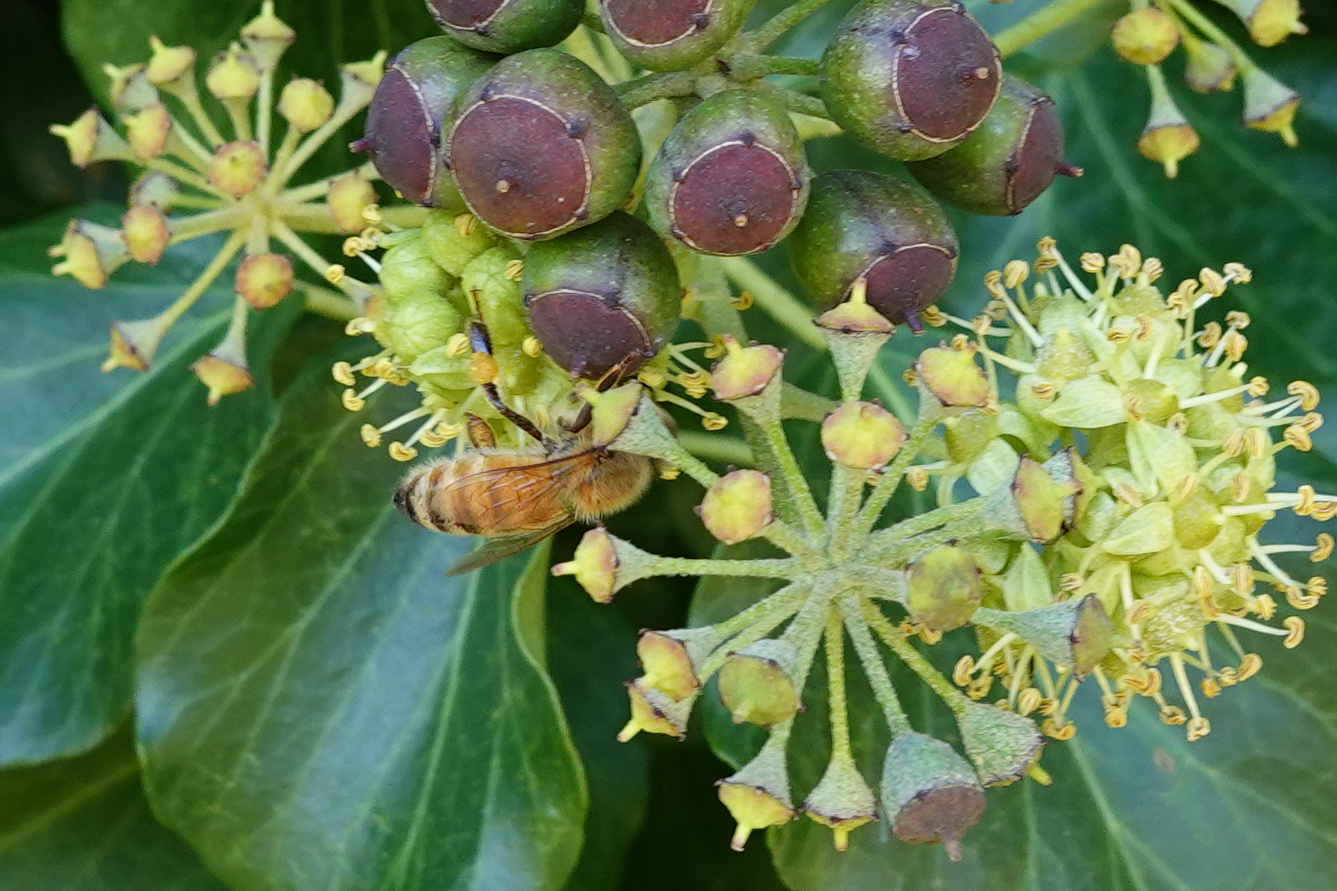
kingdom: Animalia
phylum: Arthropoda
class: Insecta
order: Hymenoptera
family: Apidae
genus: Apis
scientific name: Apis mellifera
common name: Honey bee
